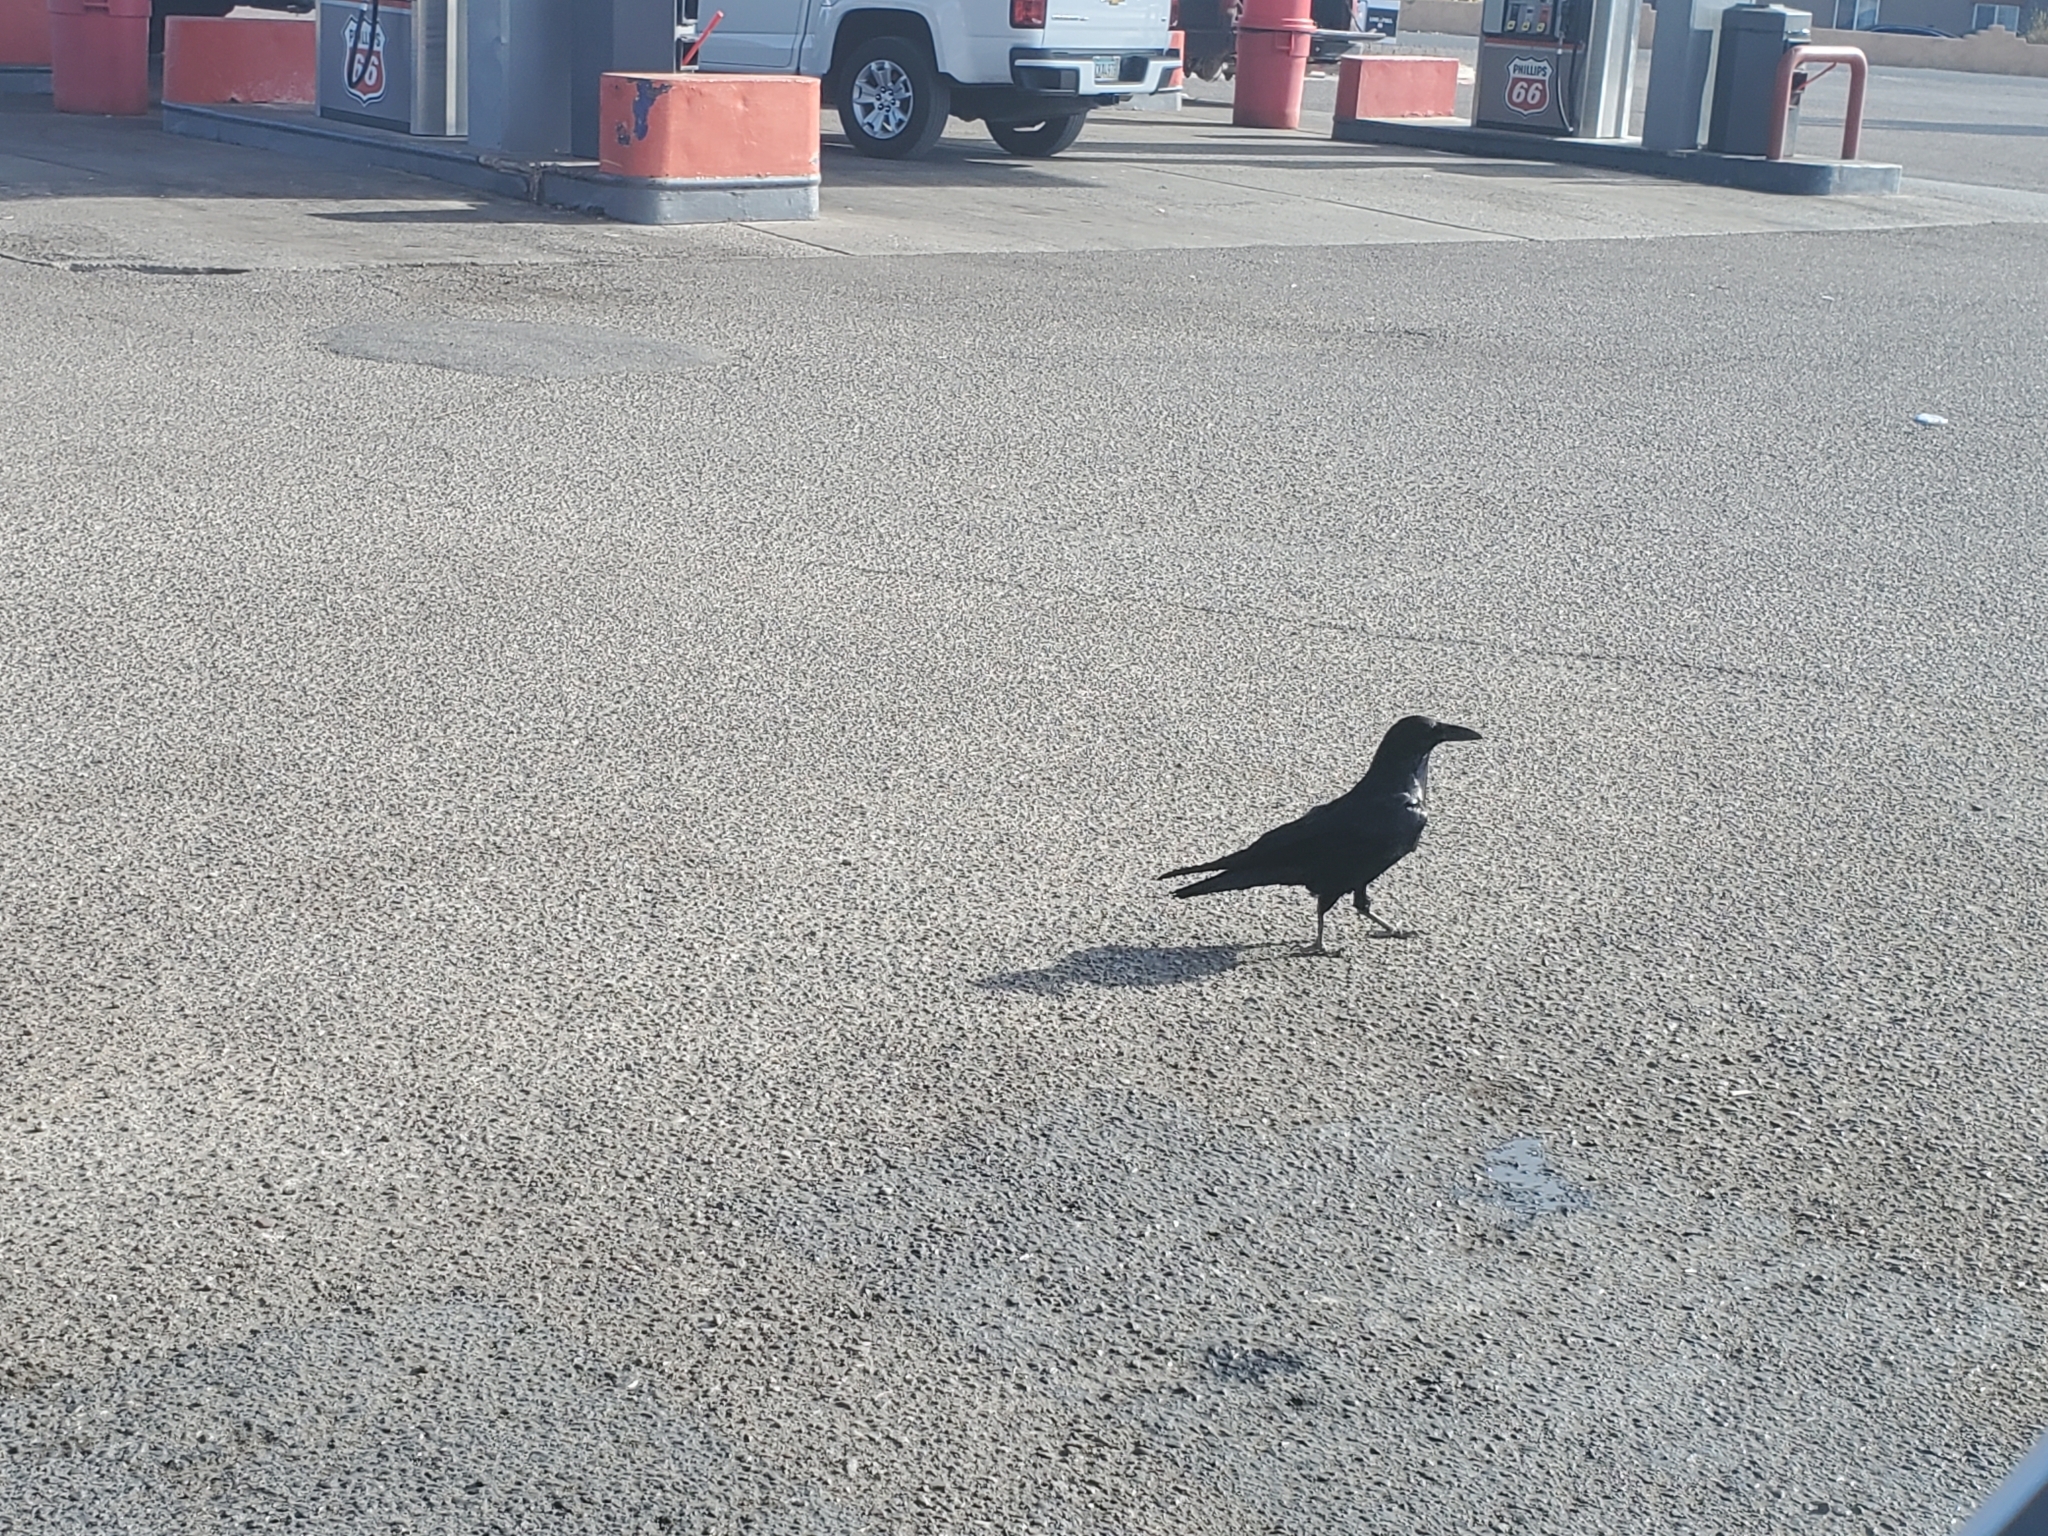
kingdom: Animalia
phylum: Chordata
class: Aves
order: Passeriformes
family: Corvidae
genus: Corvus
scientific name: Corvus corax
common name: Common raven
